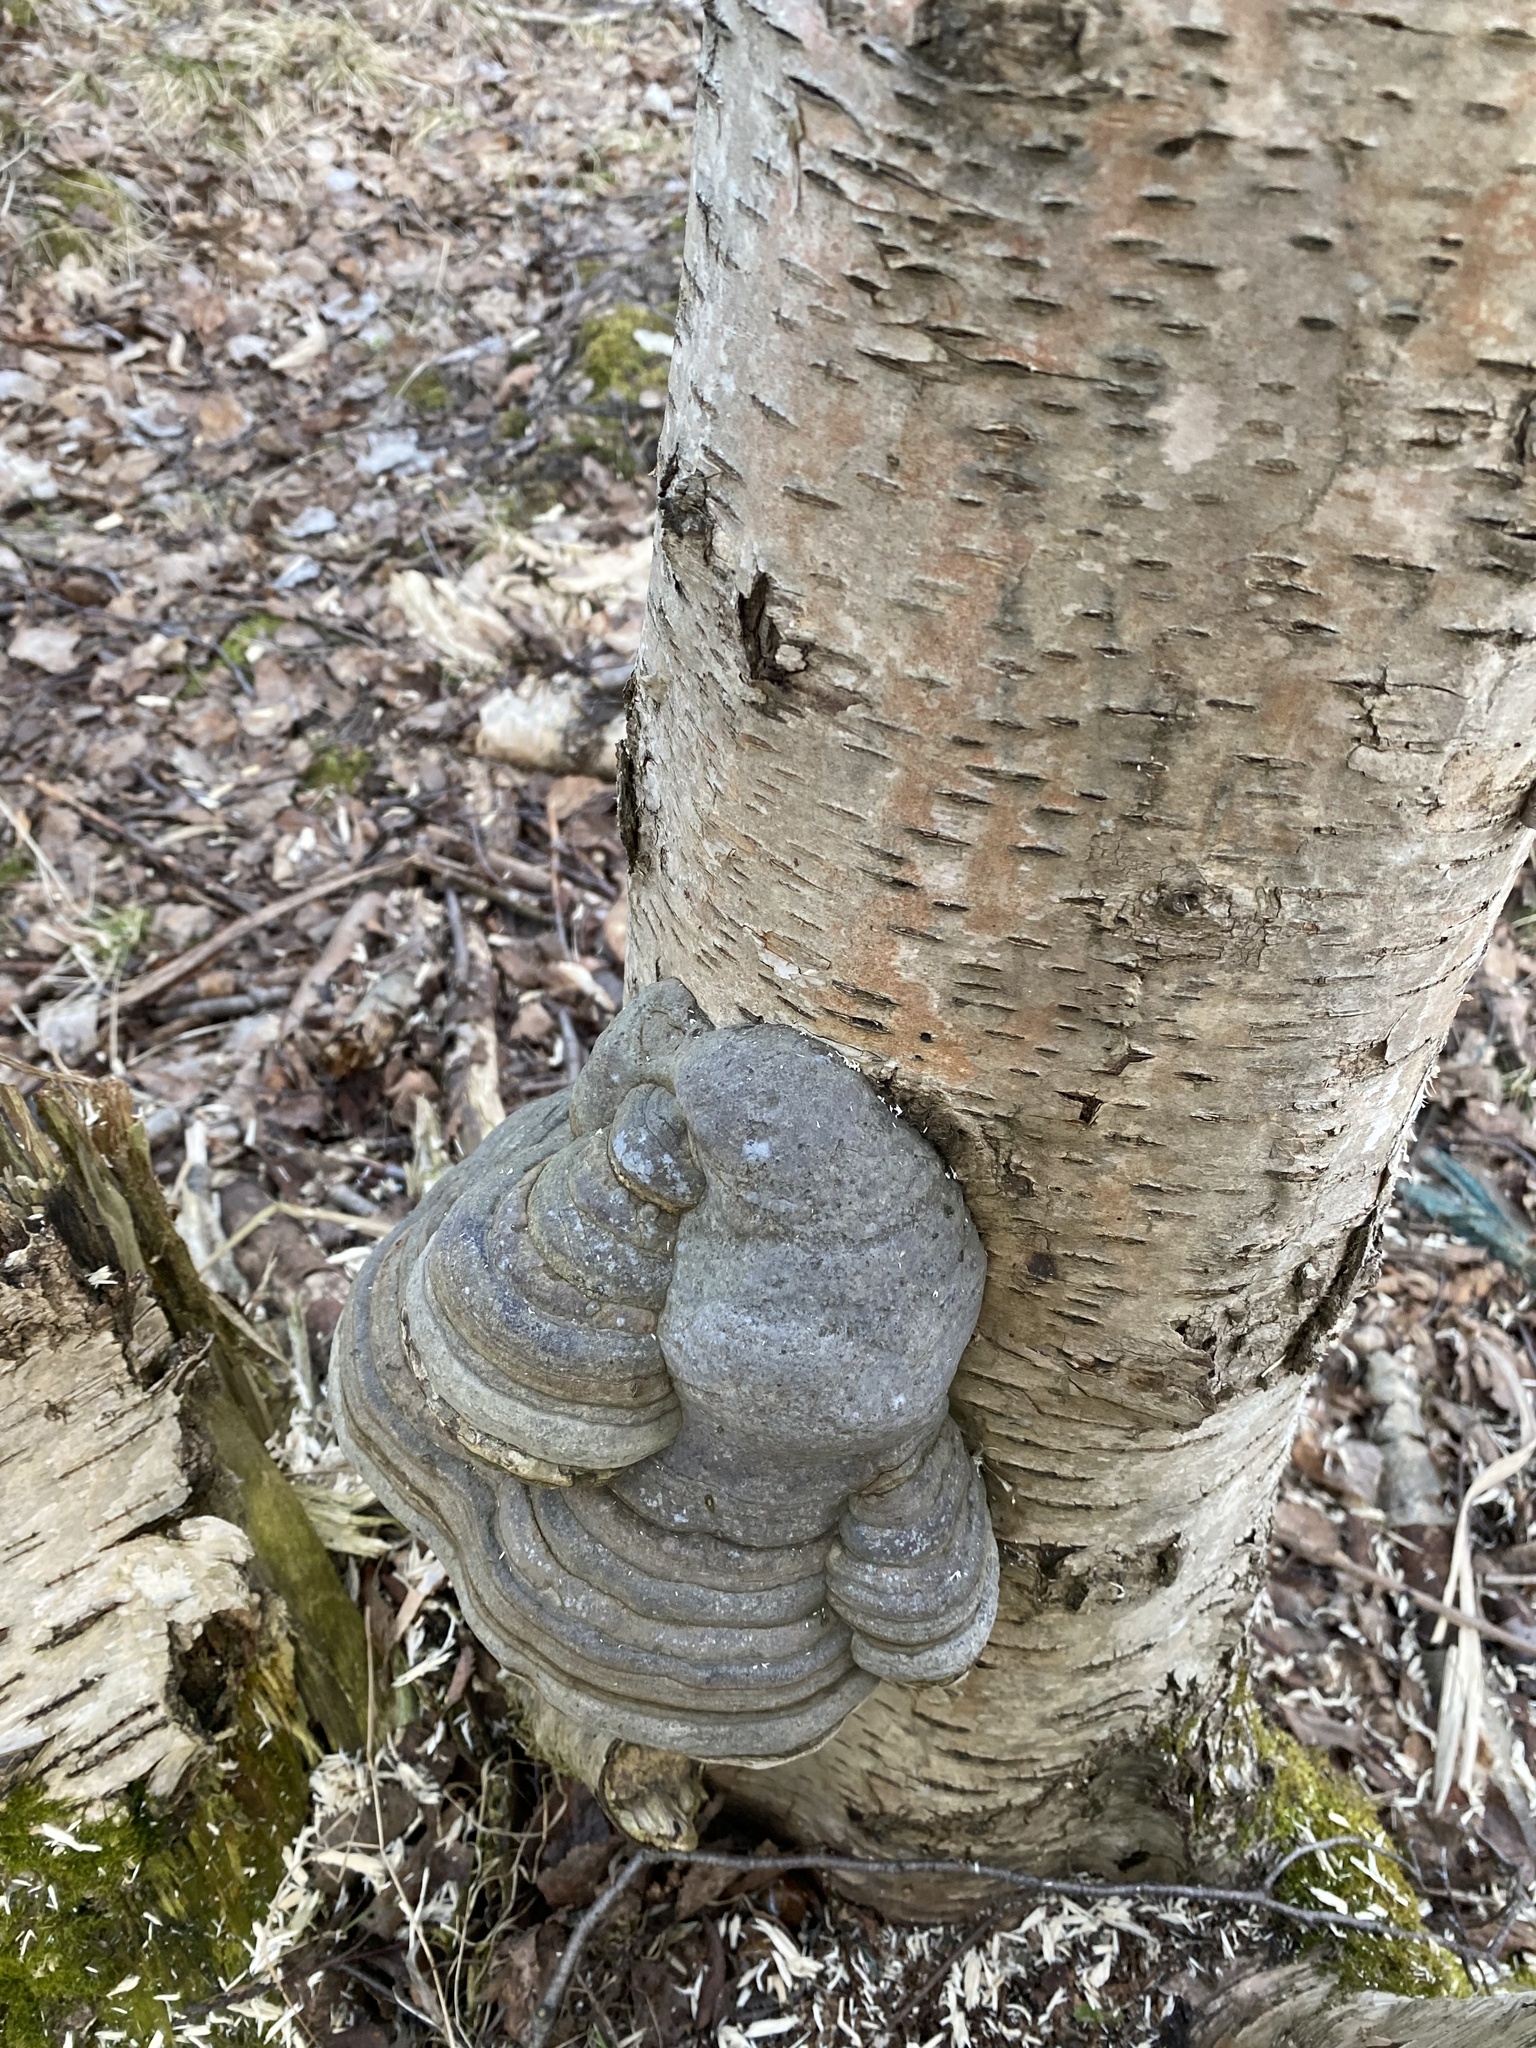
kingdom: Fungi
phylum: Basidiomycota
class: Agaricomycetes
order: Polyporales
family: Polyporaceae
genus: Fomes
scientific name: Fomes fomentarius
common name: Hoof fungus
